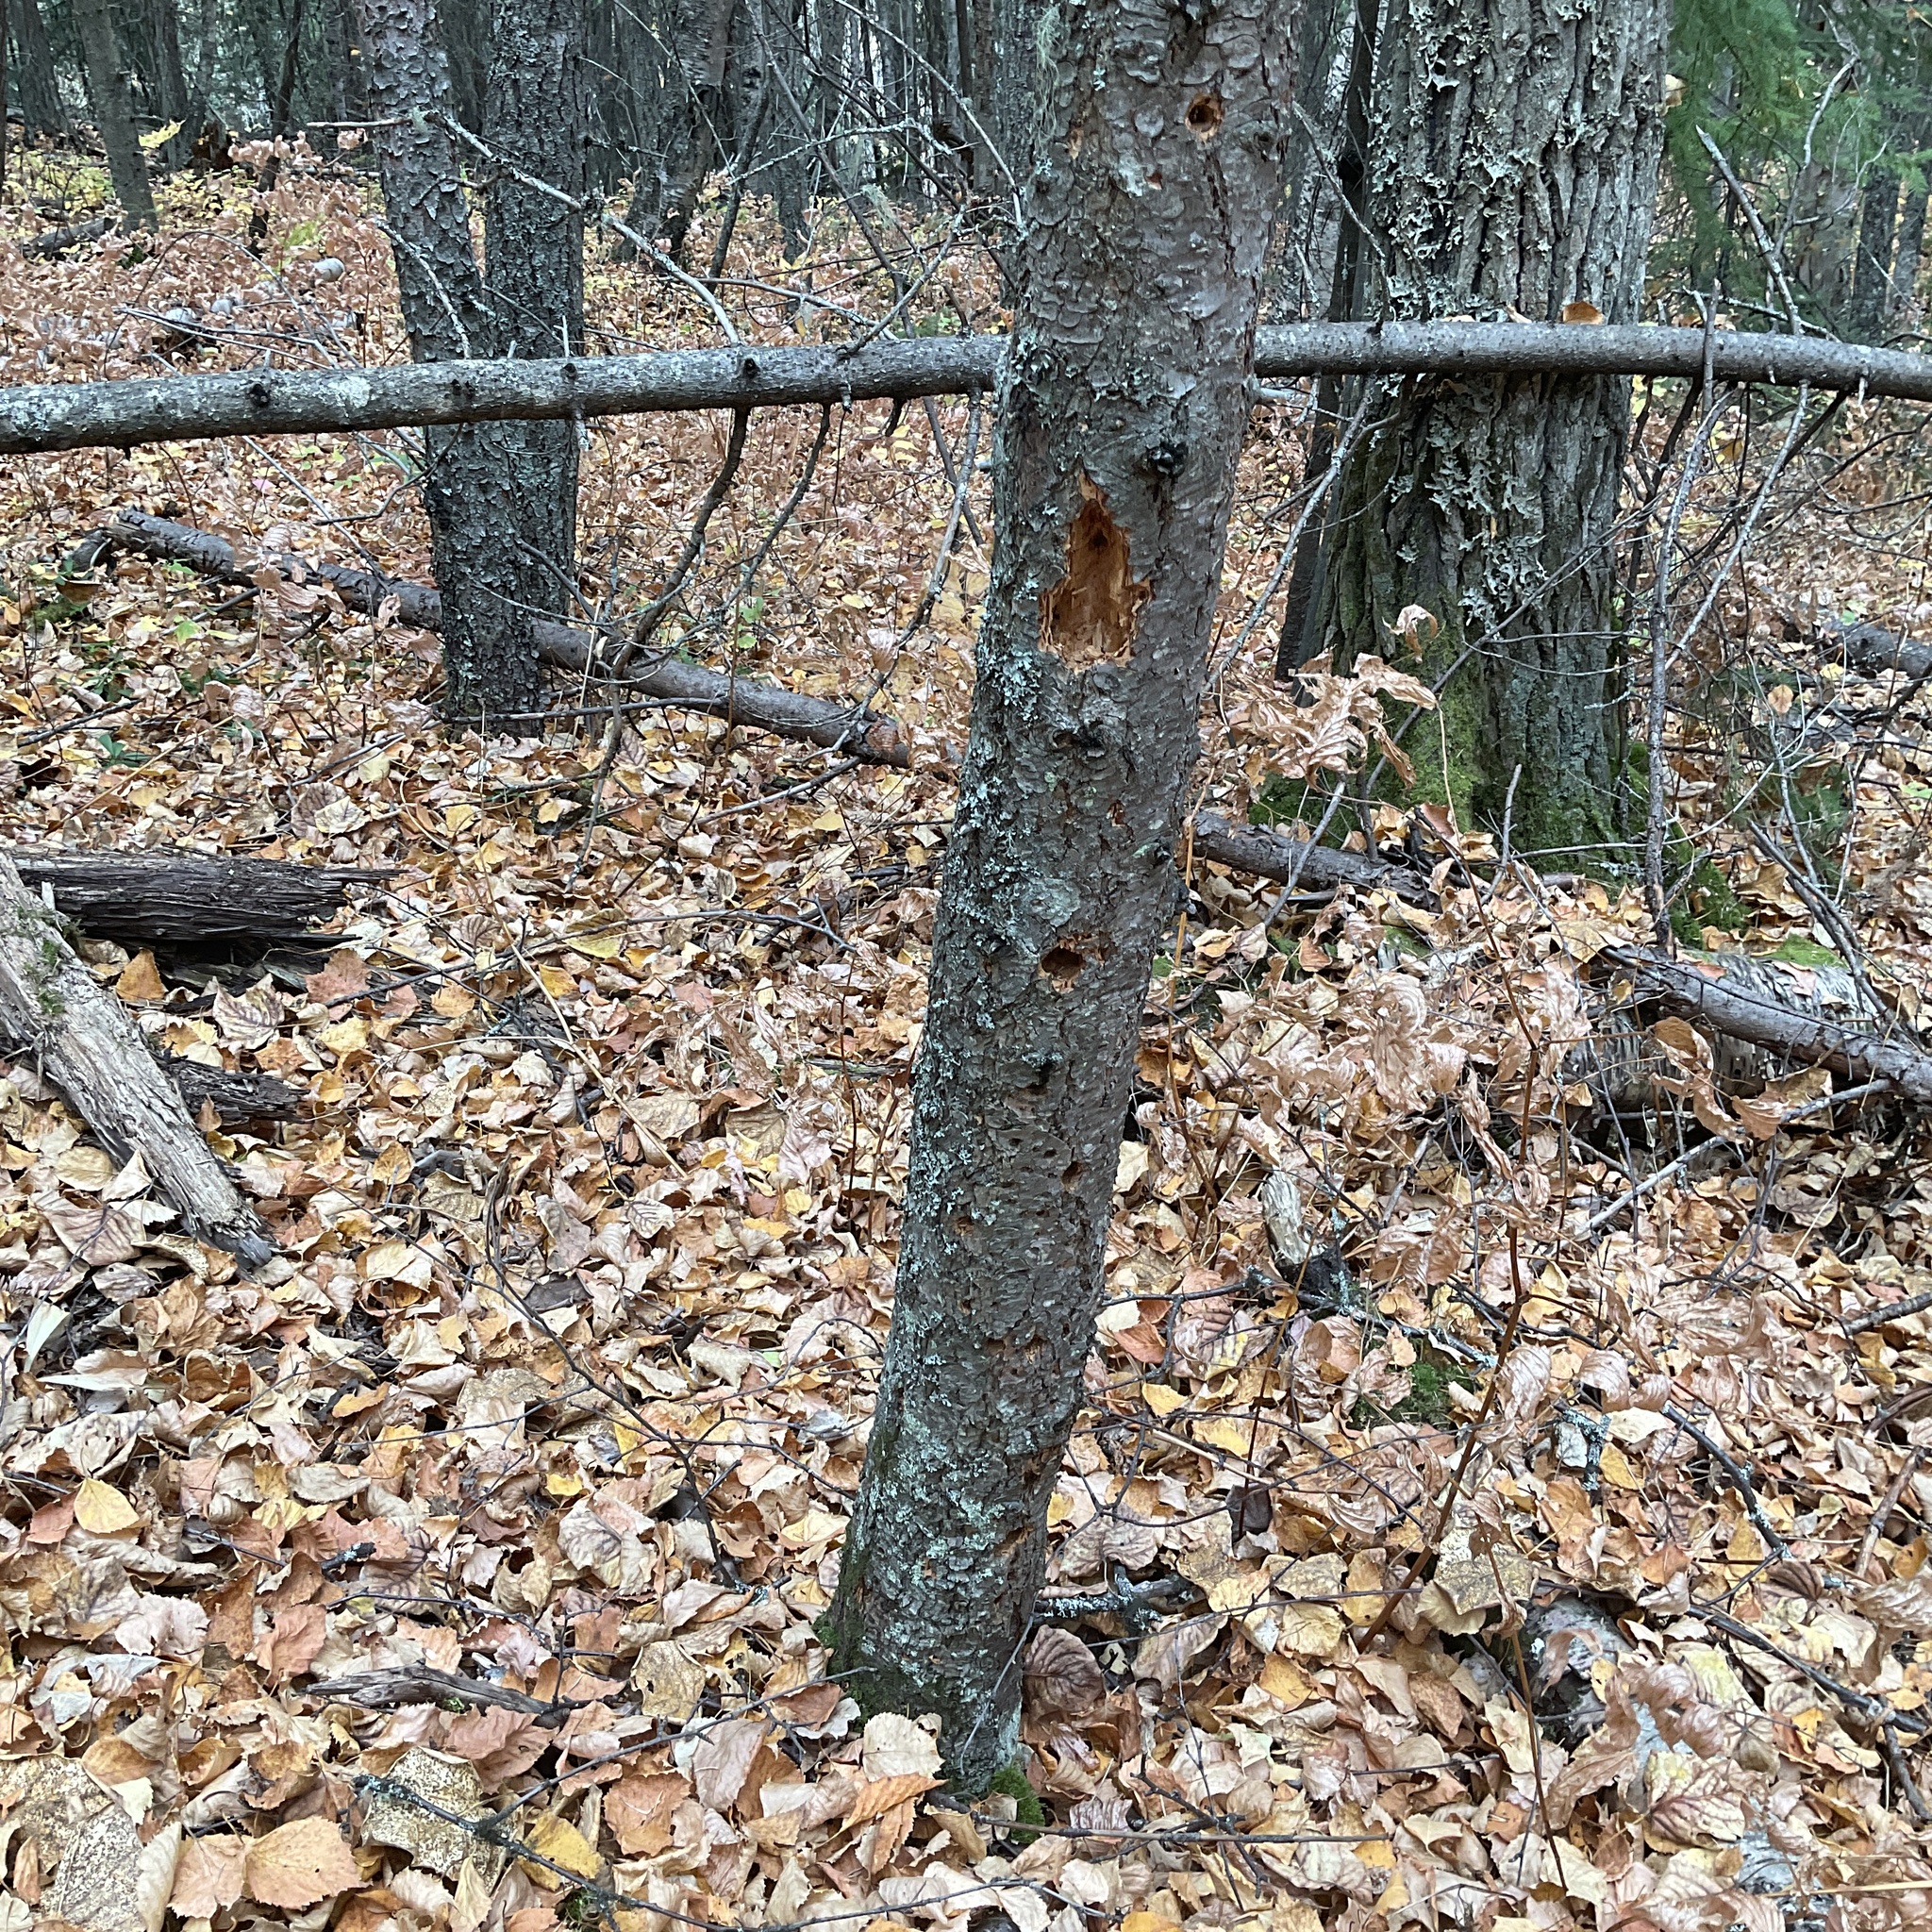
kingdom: Animalia
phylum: Chordata
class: Aves
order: Piciformes
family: Picidae
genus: Dryocopus
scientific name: Dryocopus pileatus
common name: Pileated woodpecker
